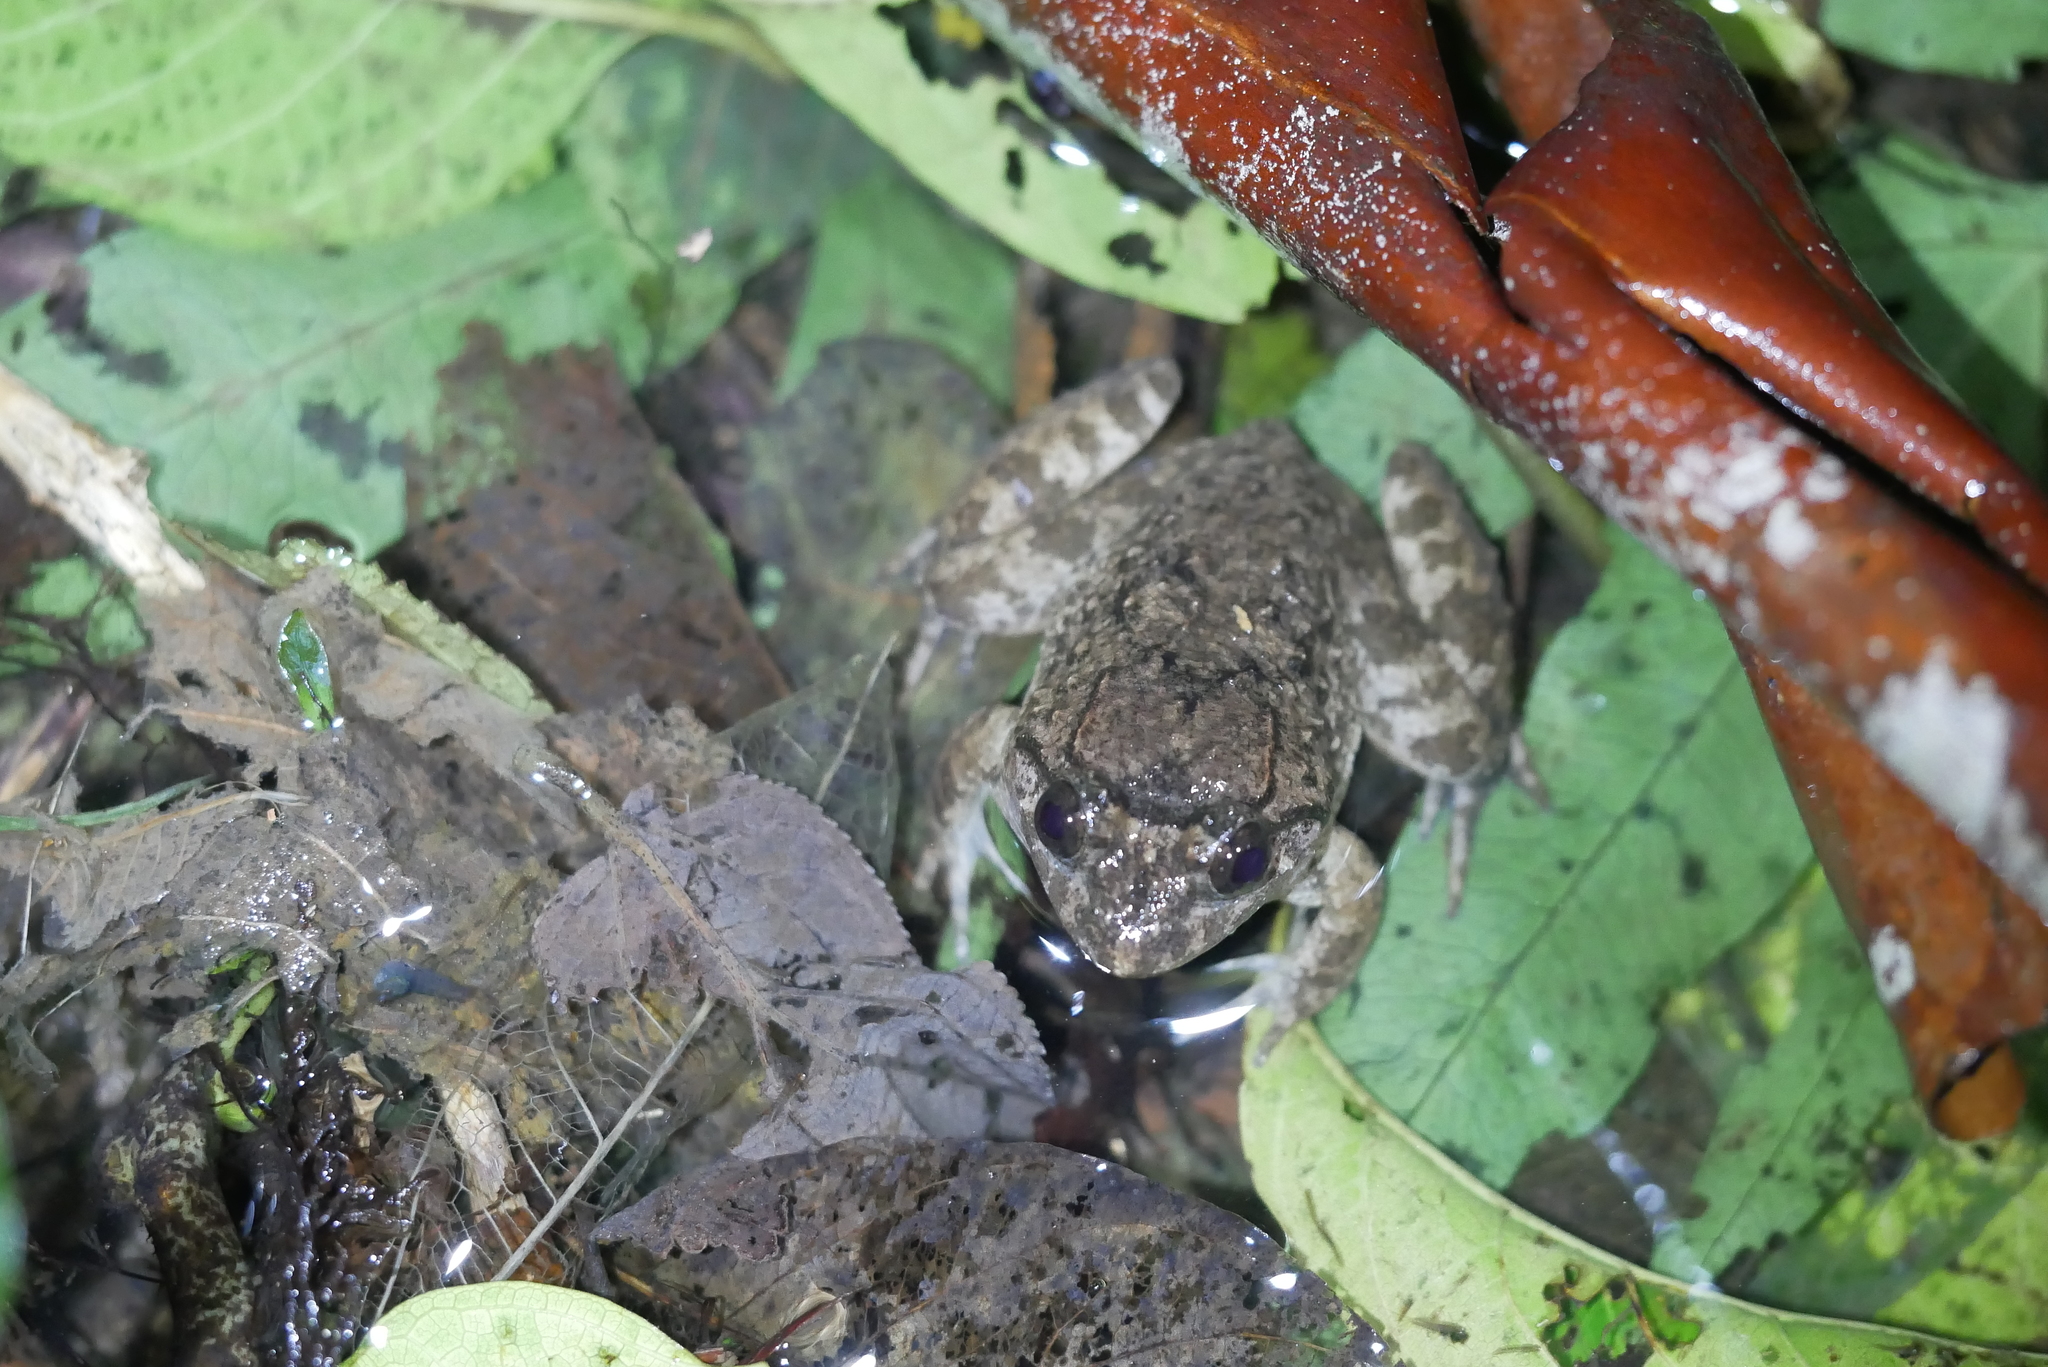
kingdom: Animalia
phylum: Chordata
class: Amphibia
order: Anura
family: Dicroglossidae
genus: Limnonectes
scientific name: Limnonectes fujianensis
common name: Fujian large-headed frog
